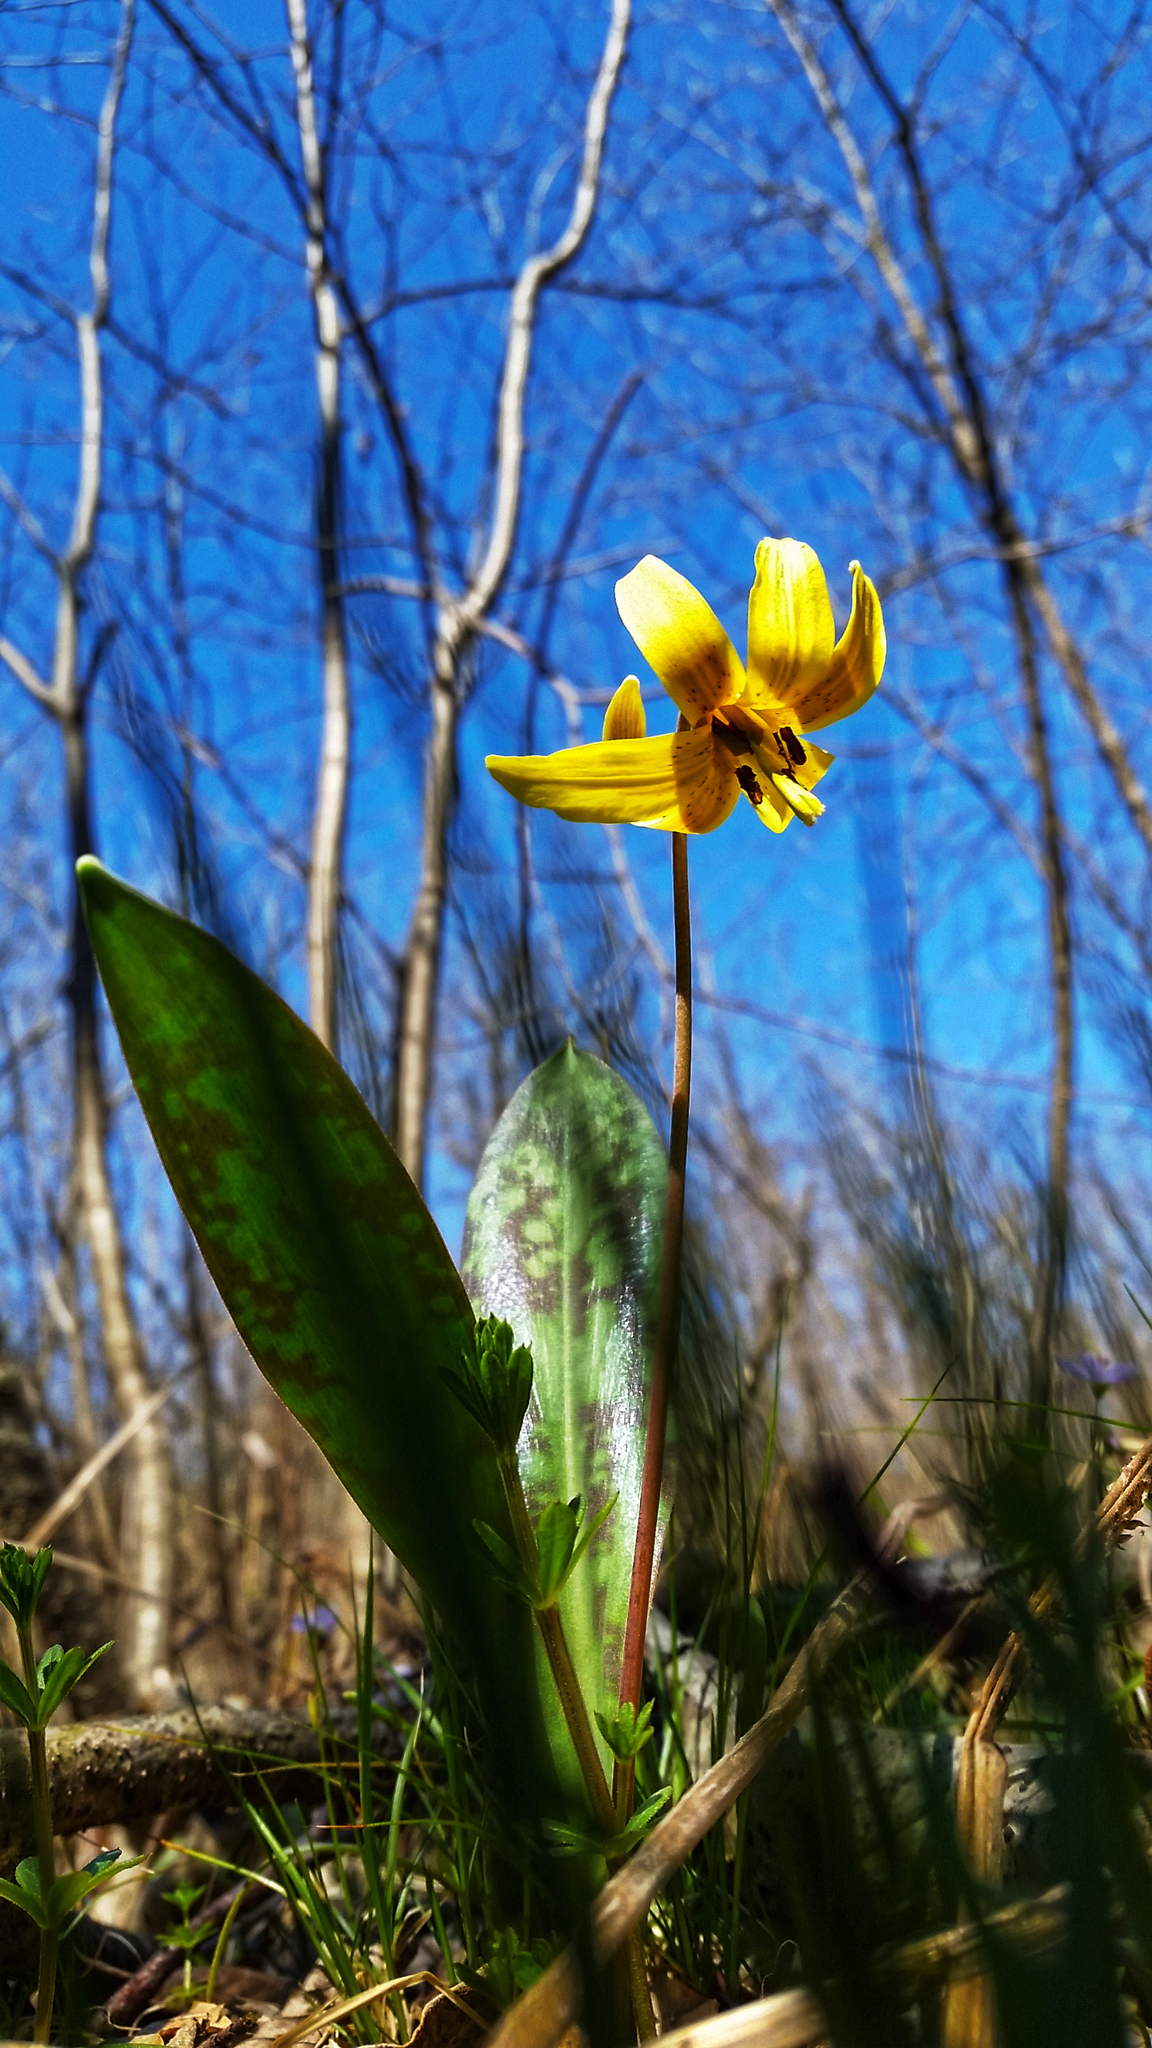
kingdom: Plantae
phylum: Tracheophyta
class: Liliopsida
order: Liliales
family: Liliaceae
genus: Erythronium
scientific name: Erythronium americanum
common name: Yellow adder's-tongue
